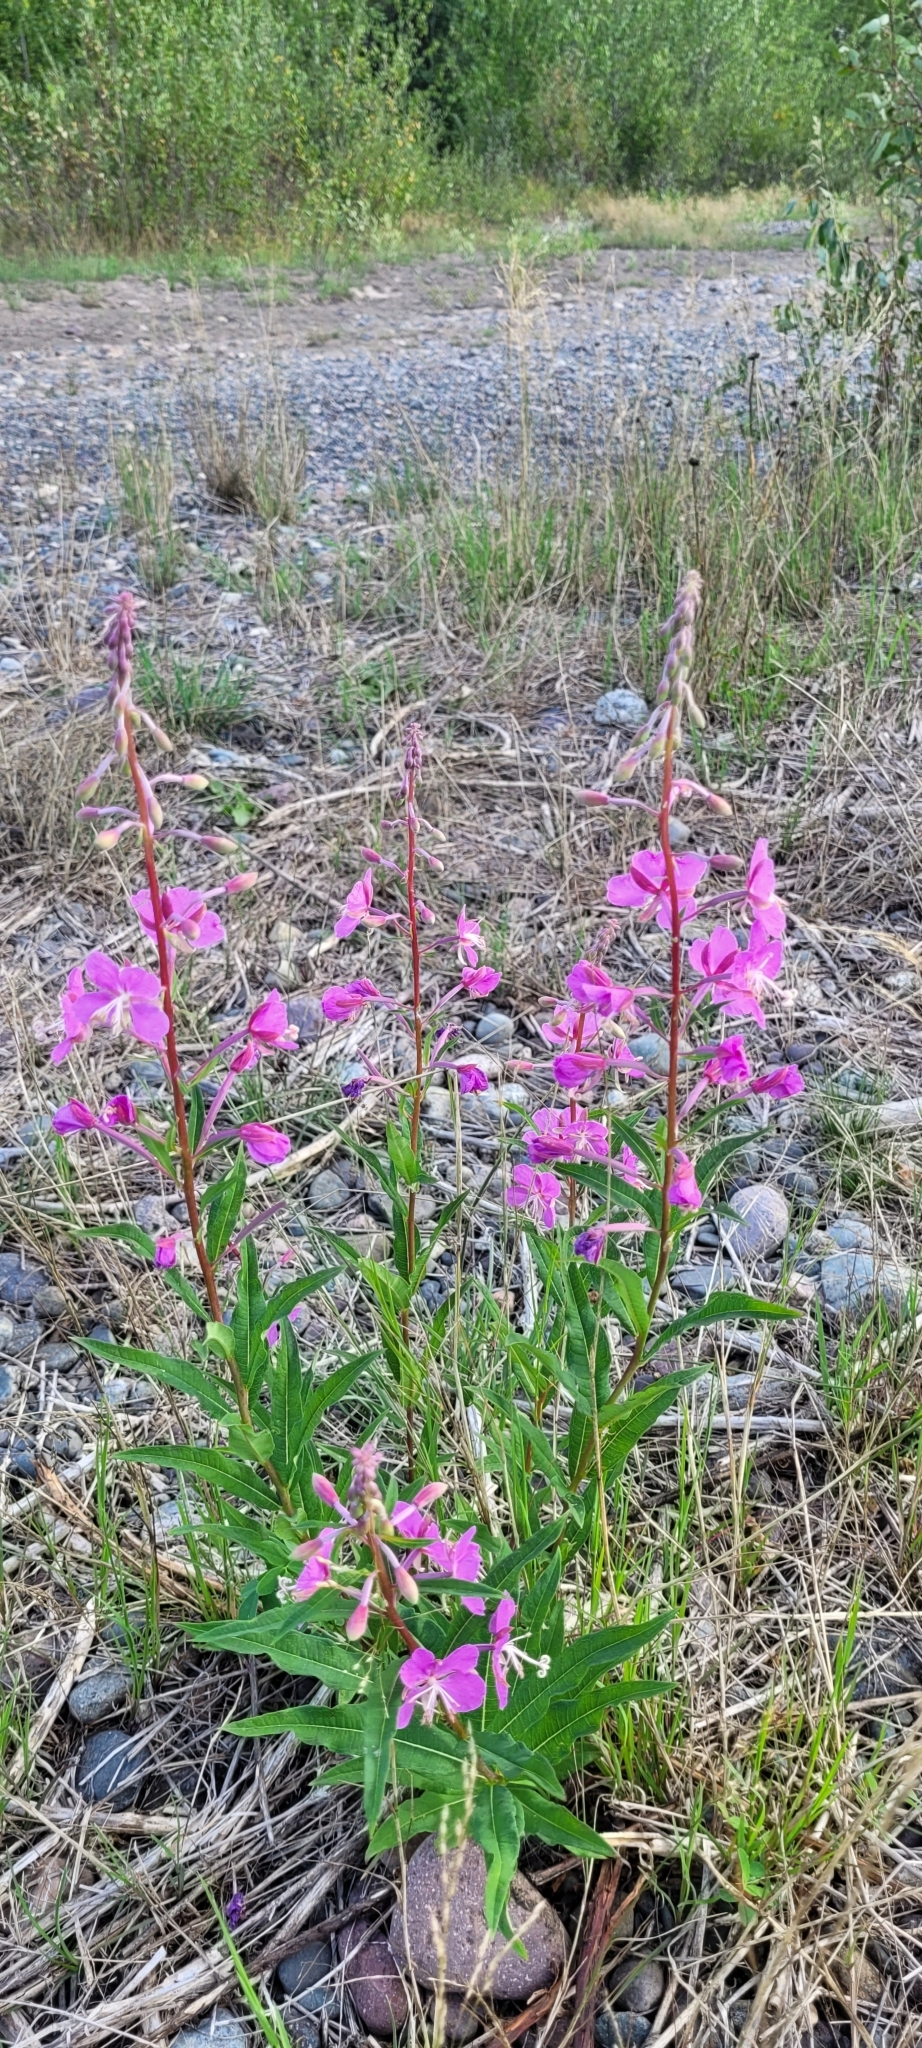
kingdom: Plantae
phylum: Tracheophyta
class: Magnoliopsida
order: Myrtales
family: Onagraceae
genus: Chamaenerion
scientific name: Chamaenerion latifolium
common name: Dwarf fireweed
